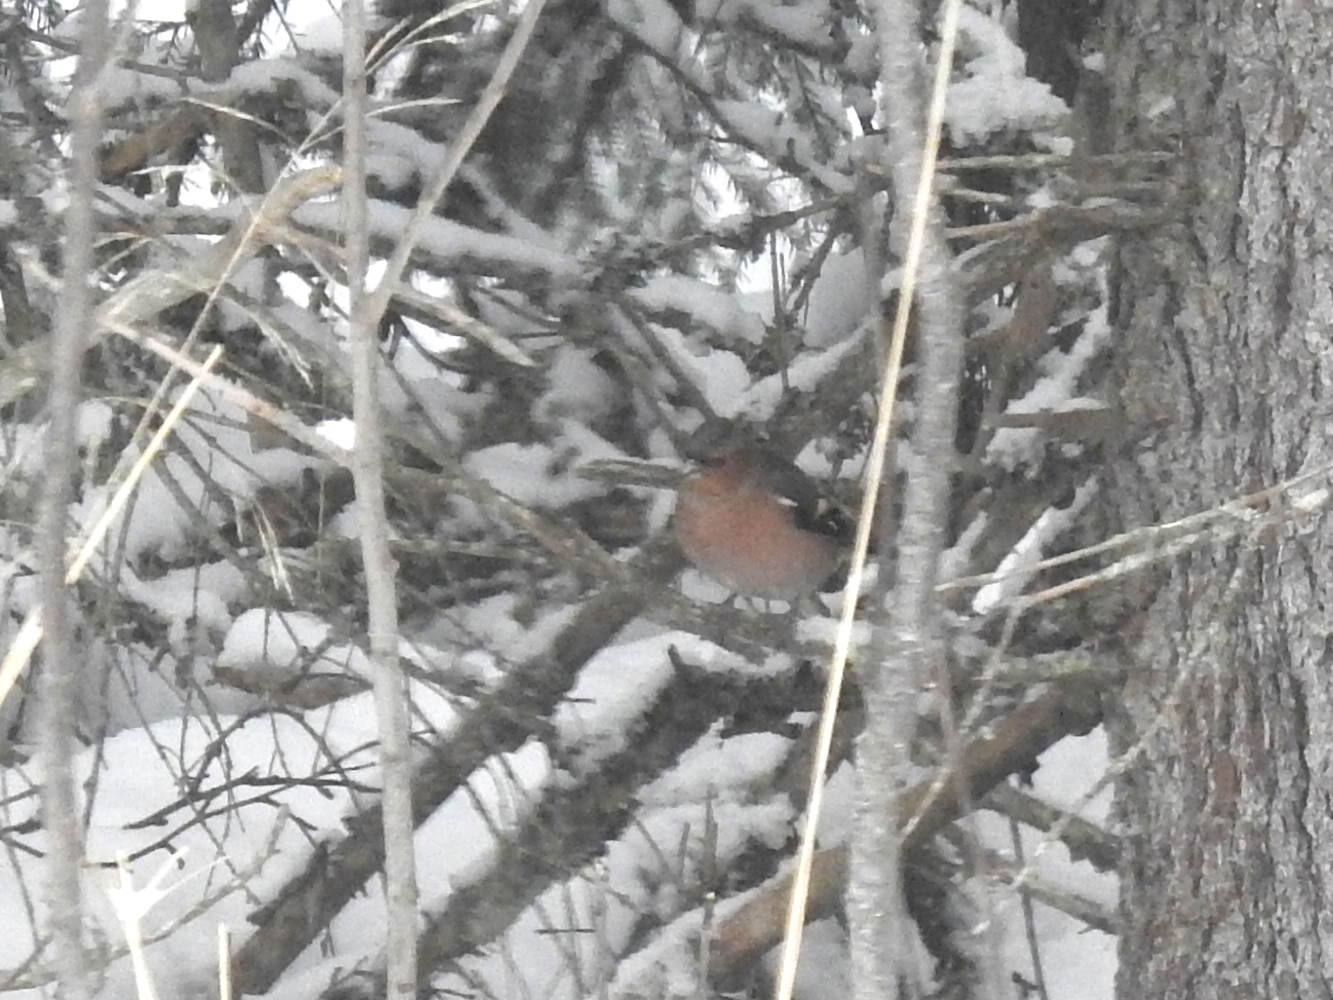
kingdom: Animalia
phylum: Chordata
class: Aves
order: Passeriformes
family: Fringillidae
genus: Fringilla
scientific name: Fringilla coelebs
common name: Common chaffinch
